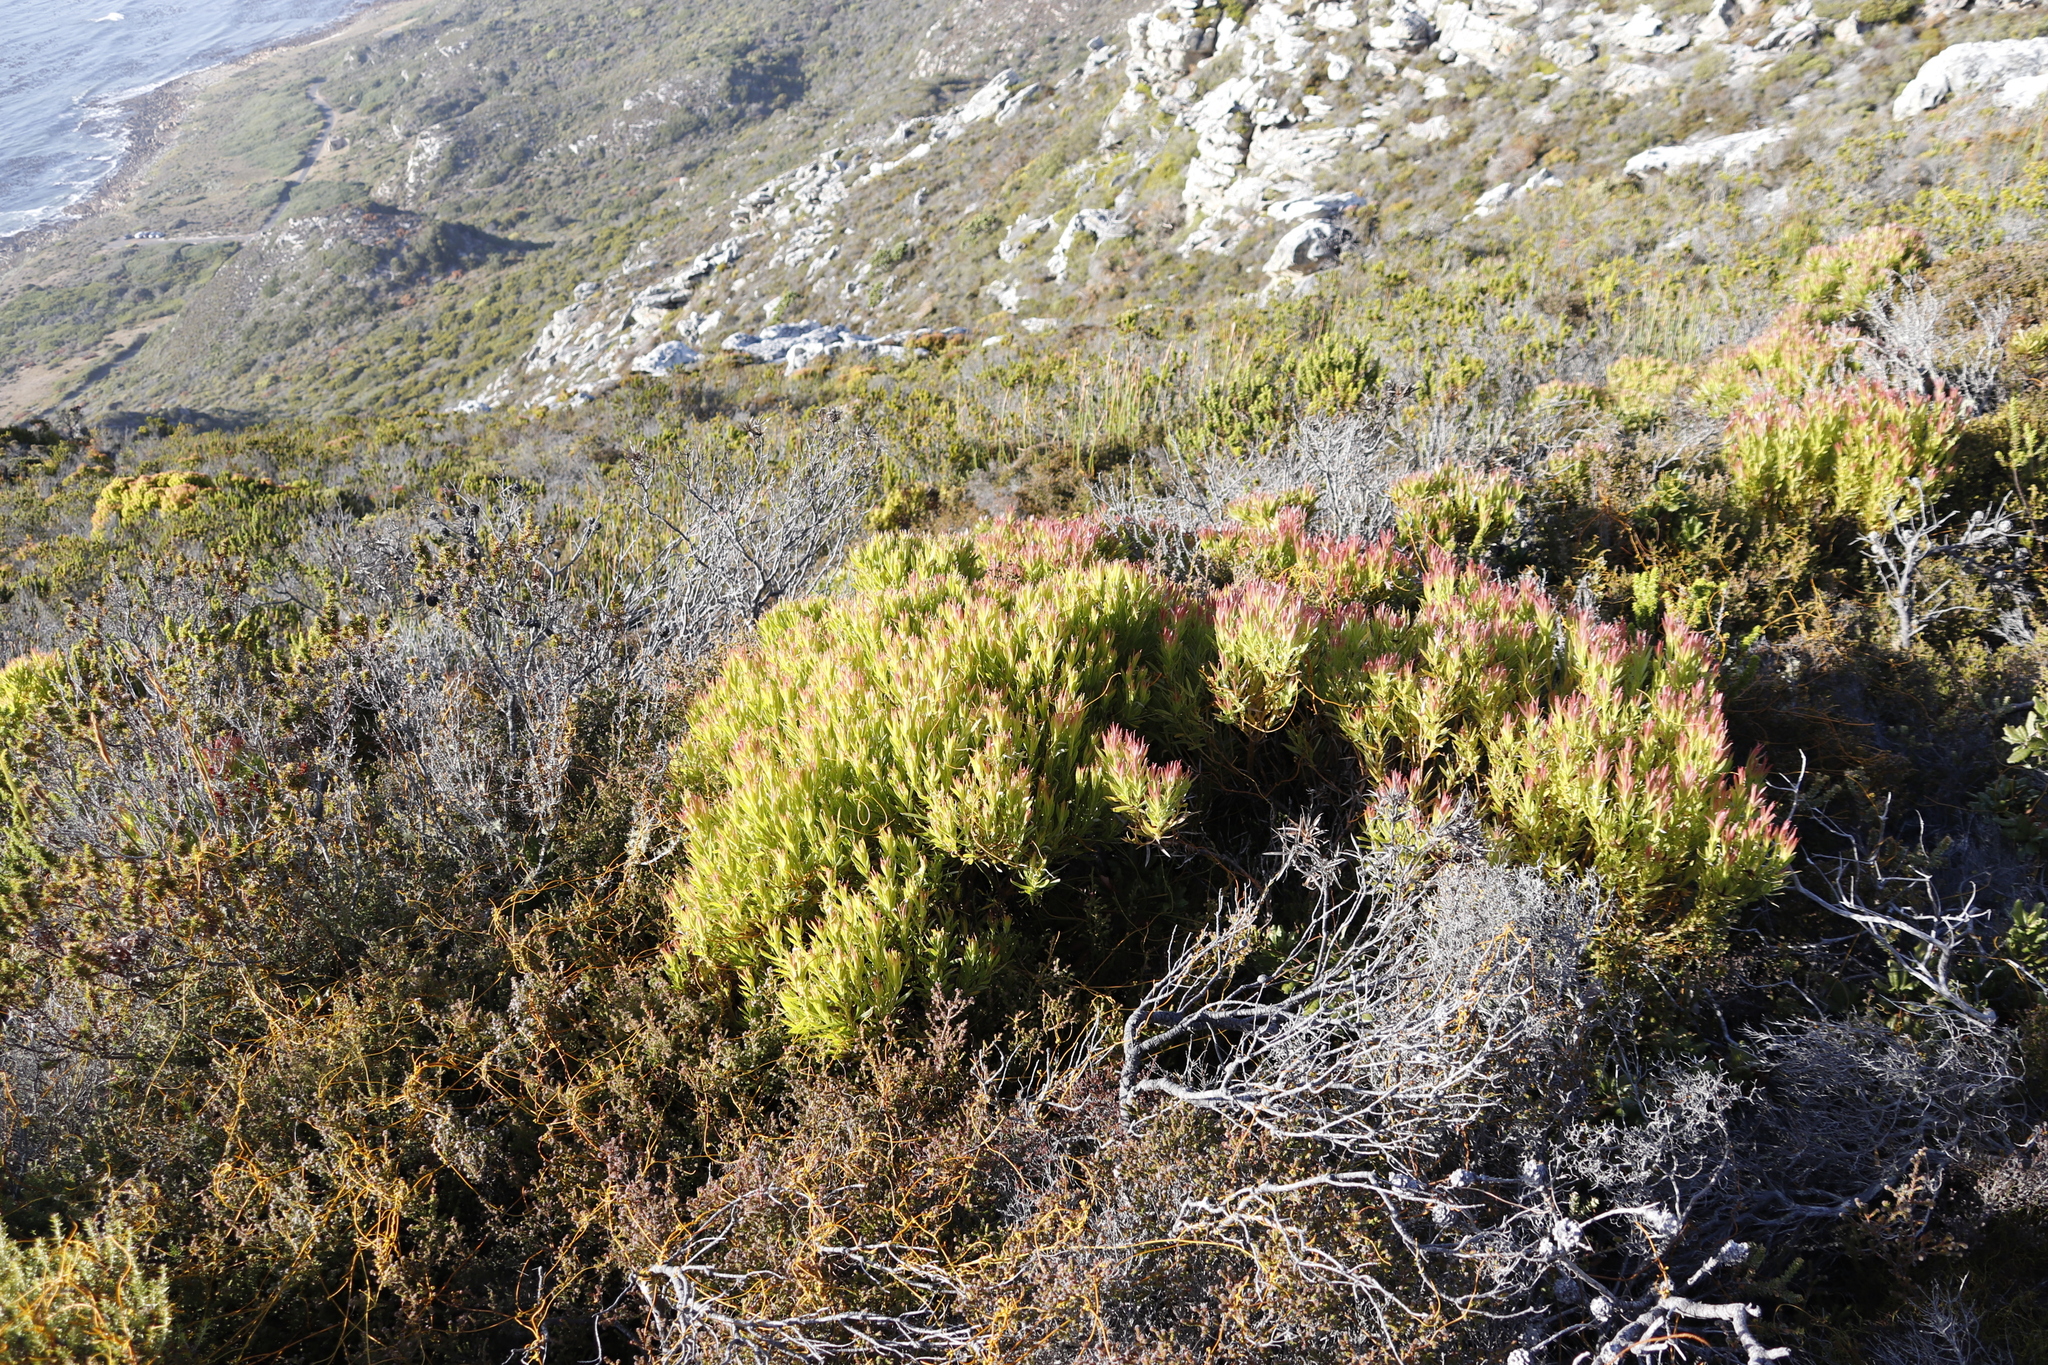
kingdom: Plantae
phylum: Tracheophyta
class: Magnoliopsida
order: Proteales
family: Proteaceae
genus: Leucadendron
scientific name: Leucadendron xanthoconus
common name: Sickle-leaf conebush
